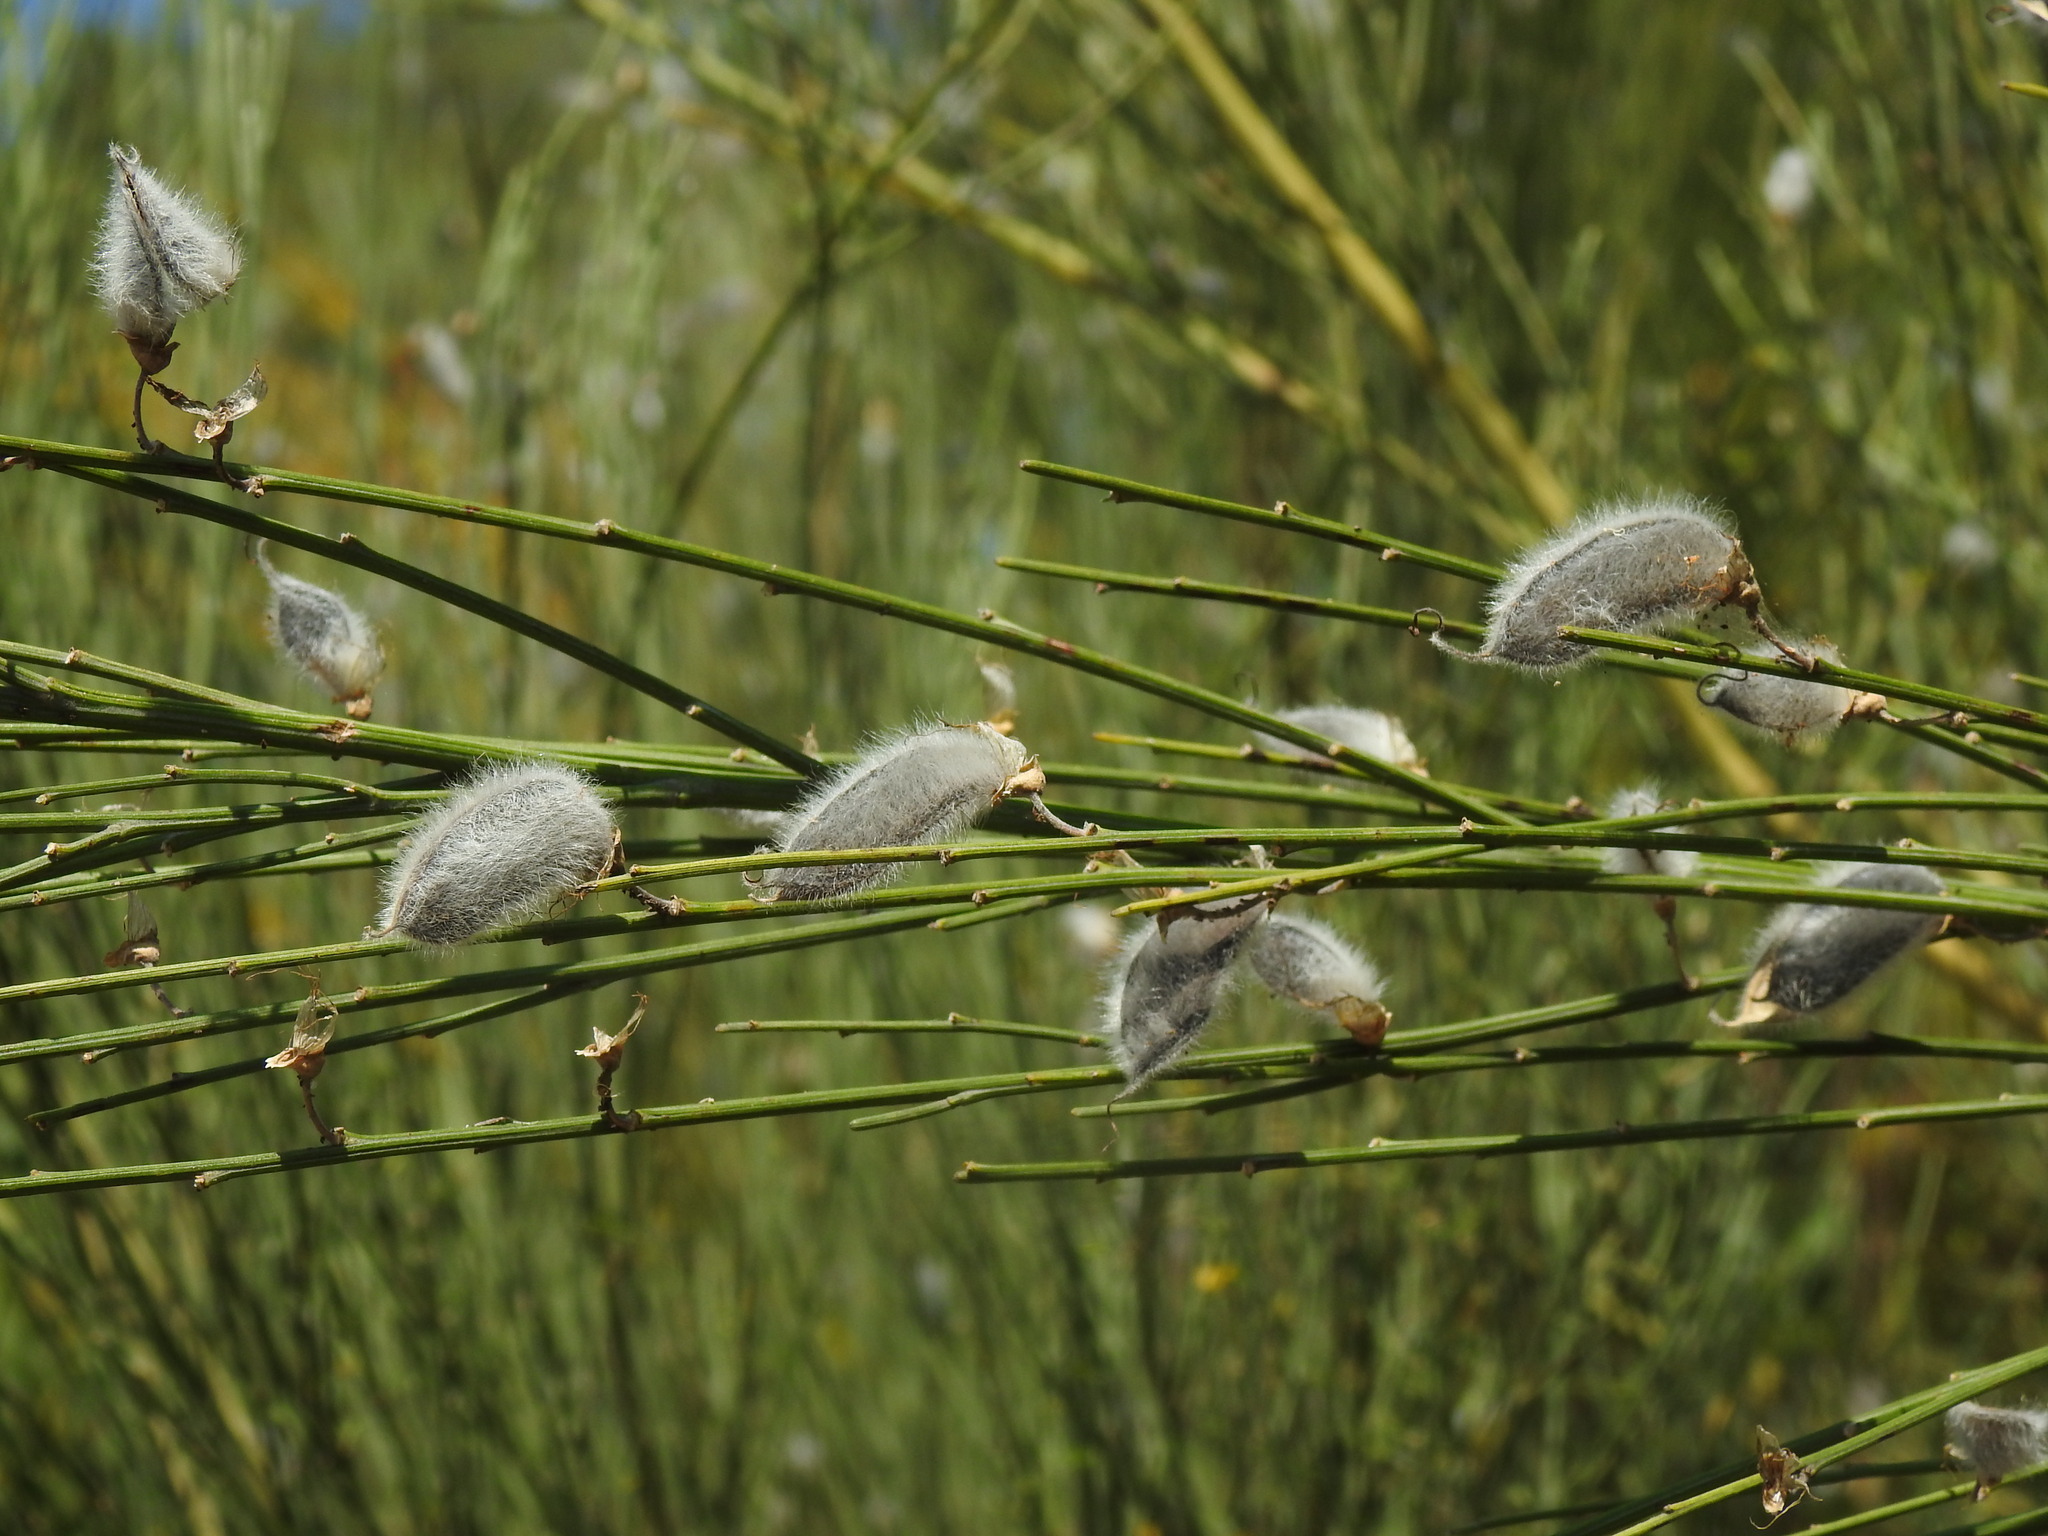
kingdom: Plantae
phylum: Tracheophyta
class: Magnoliopsida
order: Fabales
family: Fabaceae
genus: Cytisus
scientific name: Cytisus striatus
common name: Hairy-fruited broom
